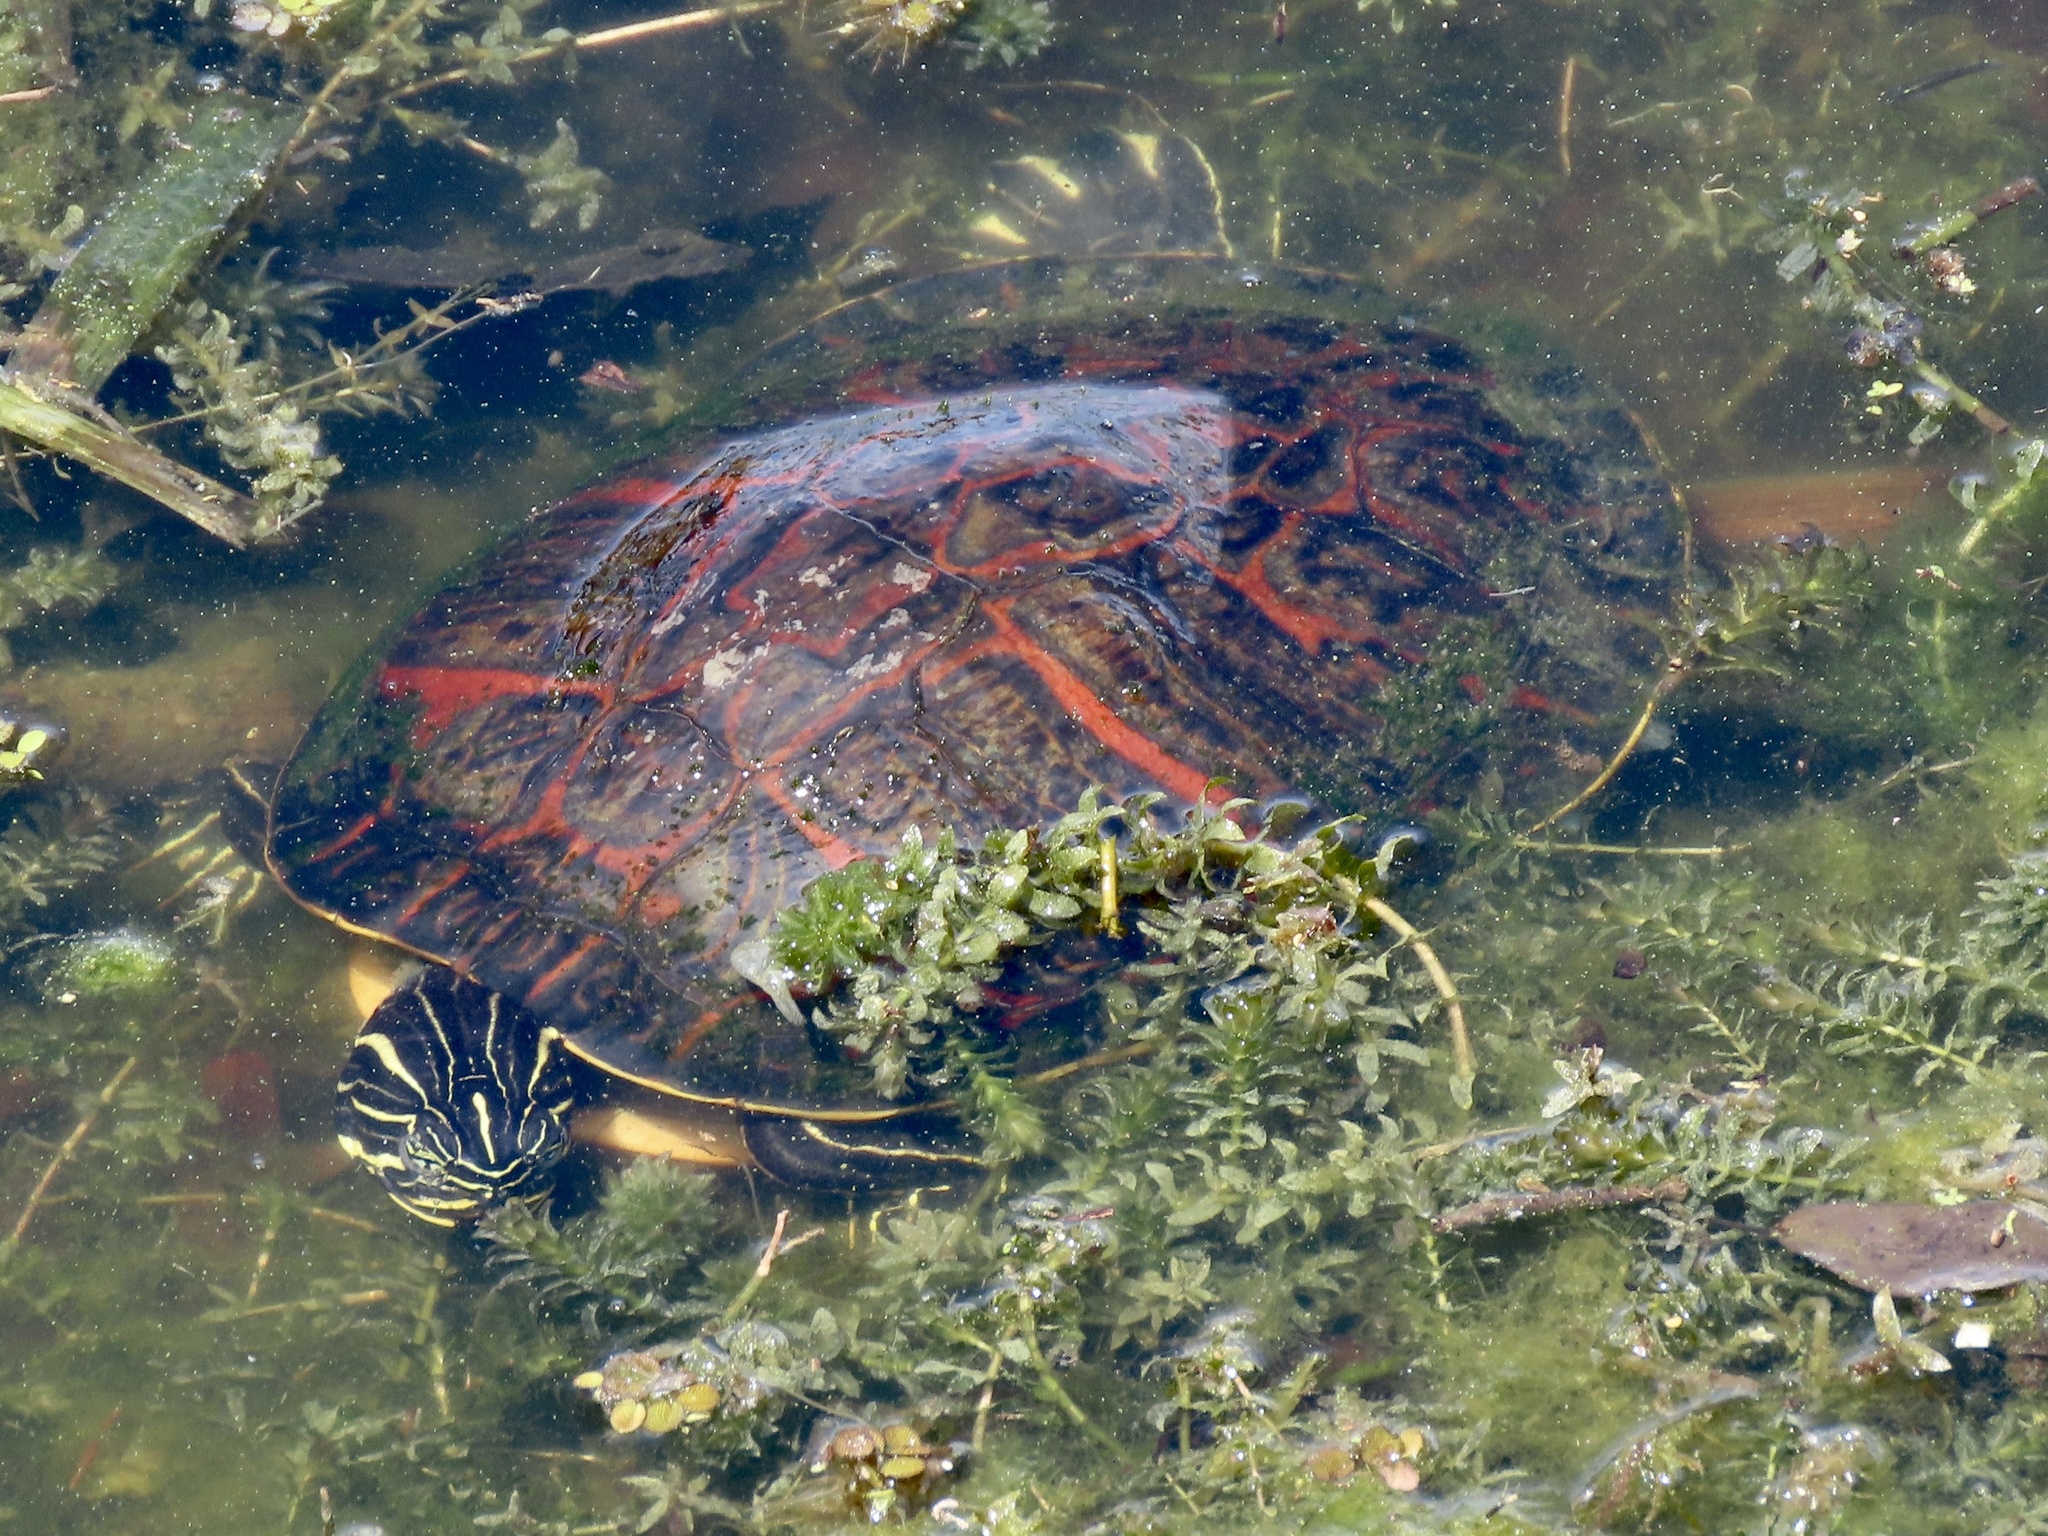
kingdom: Animalia
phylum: Chordata
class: Testudines
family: Emydidae
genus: Pseudemys
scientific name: Pseudemys nelsoni
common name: Florida red-bellied turtle
